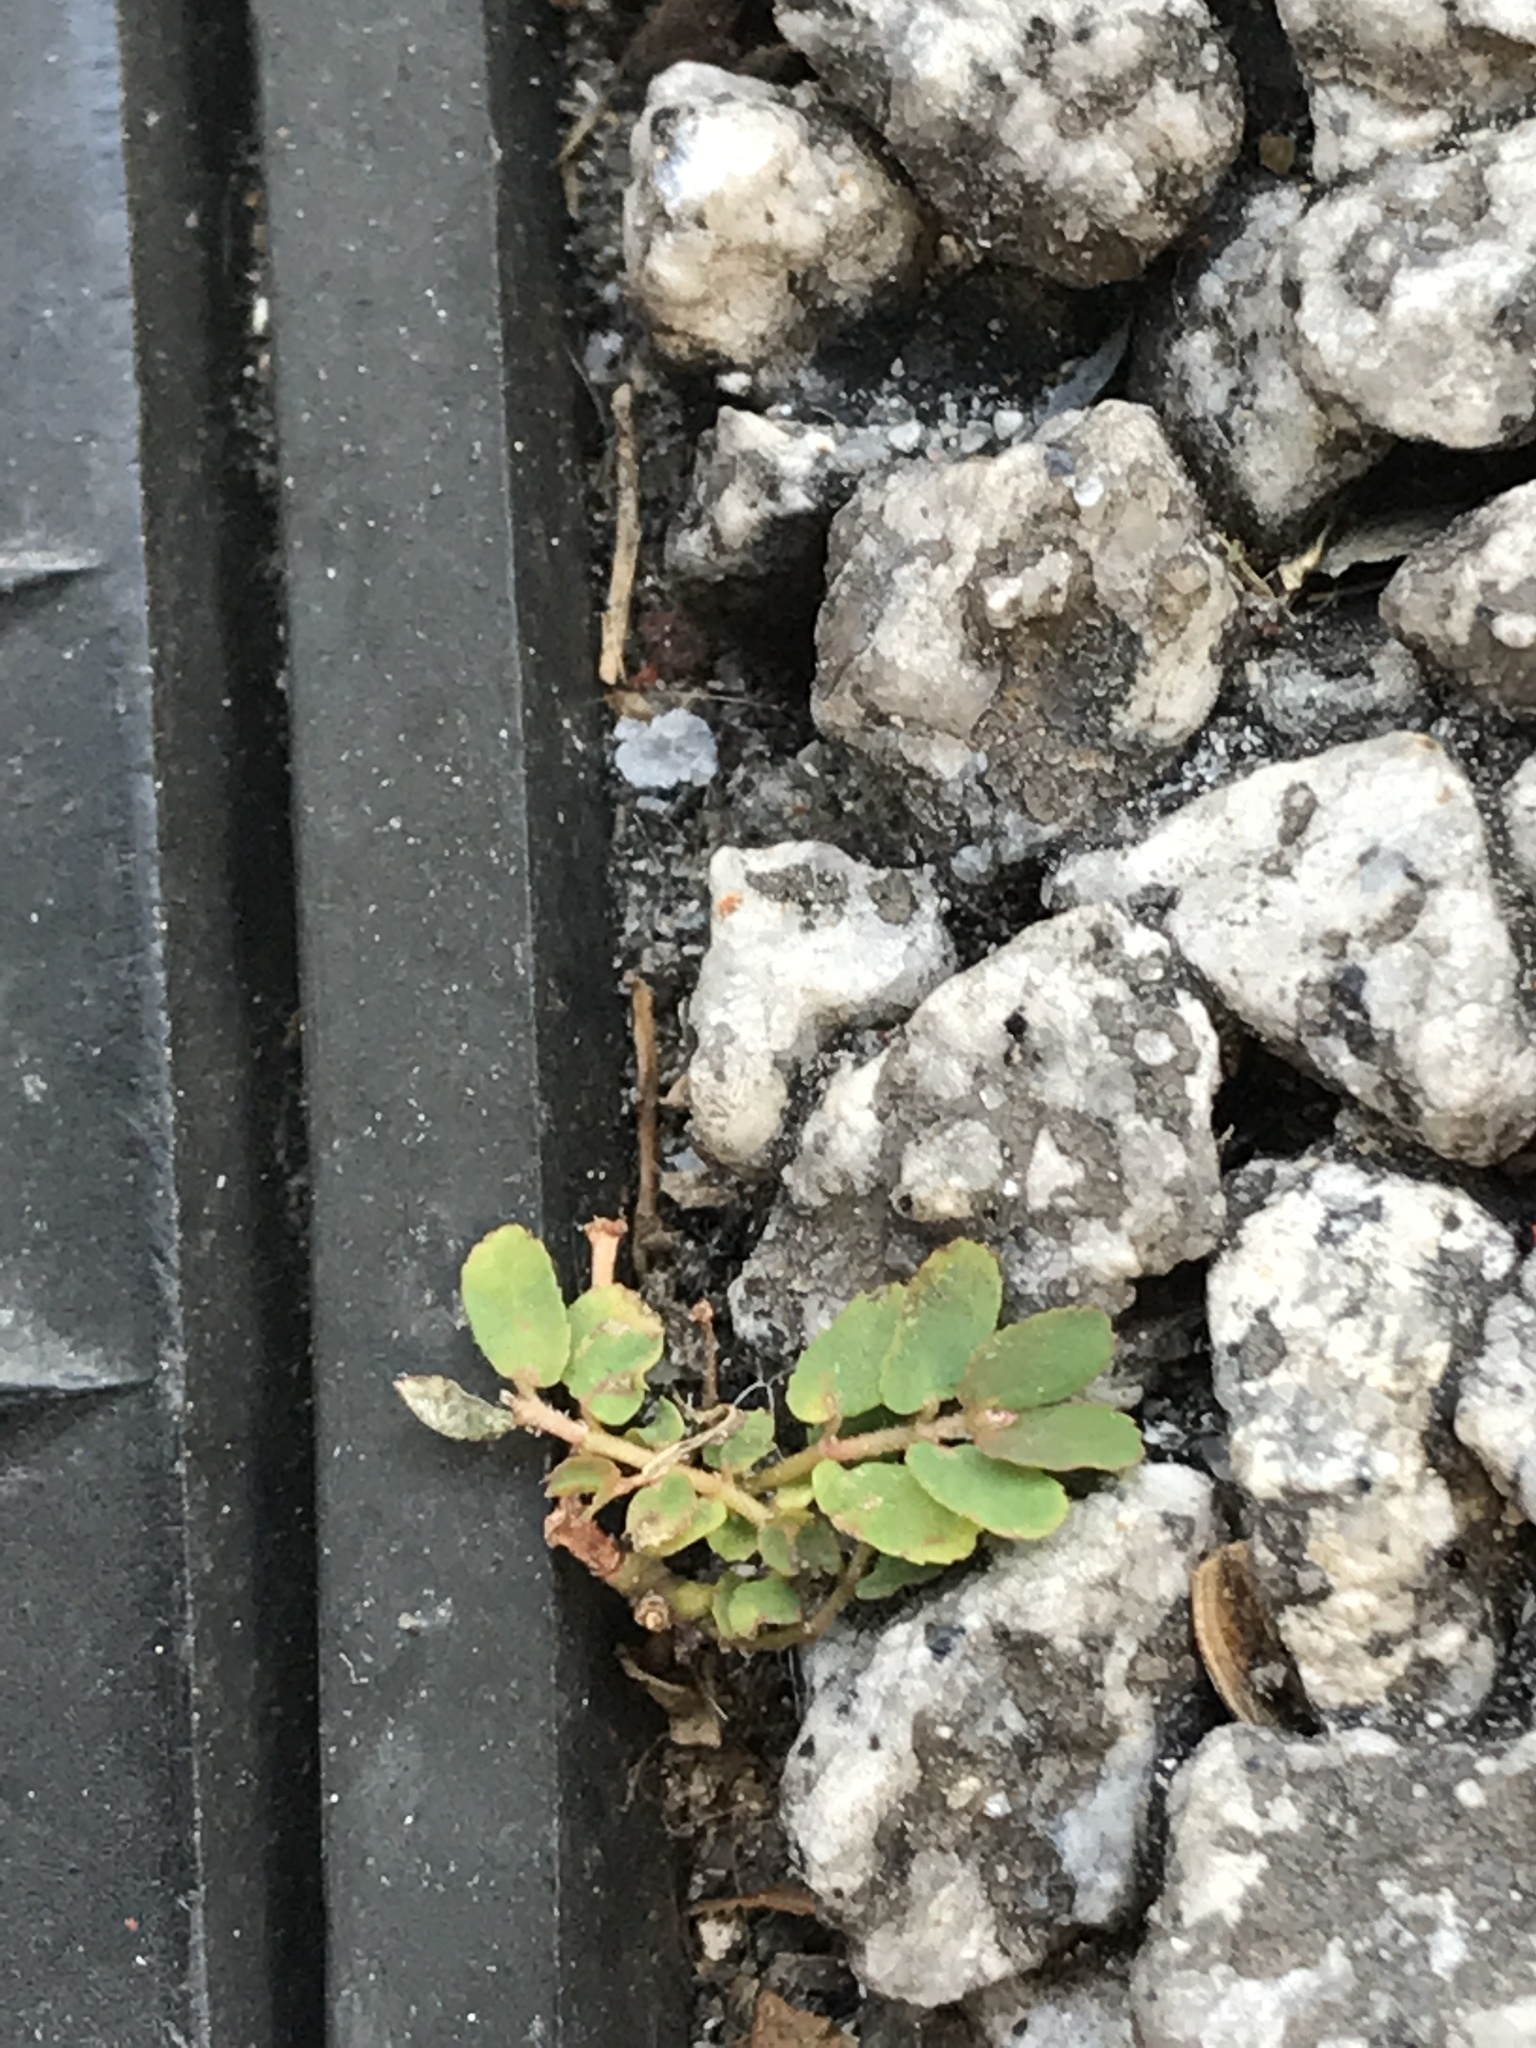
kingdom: Plantae
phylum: Tracheophyta
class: Magnoliopsida
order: Malpighiales
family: Euphorbiaceae
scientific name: Euphorbiaceae
